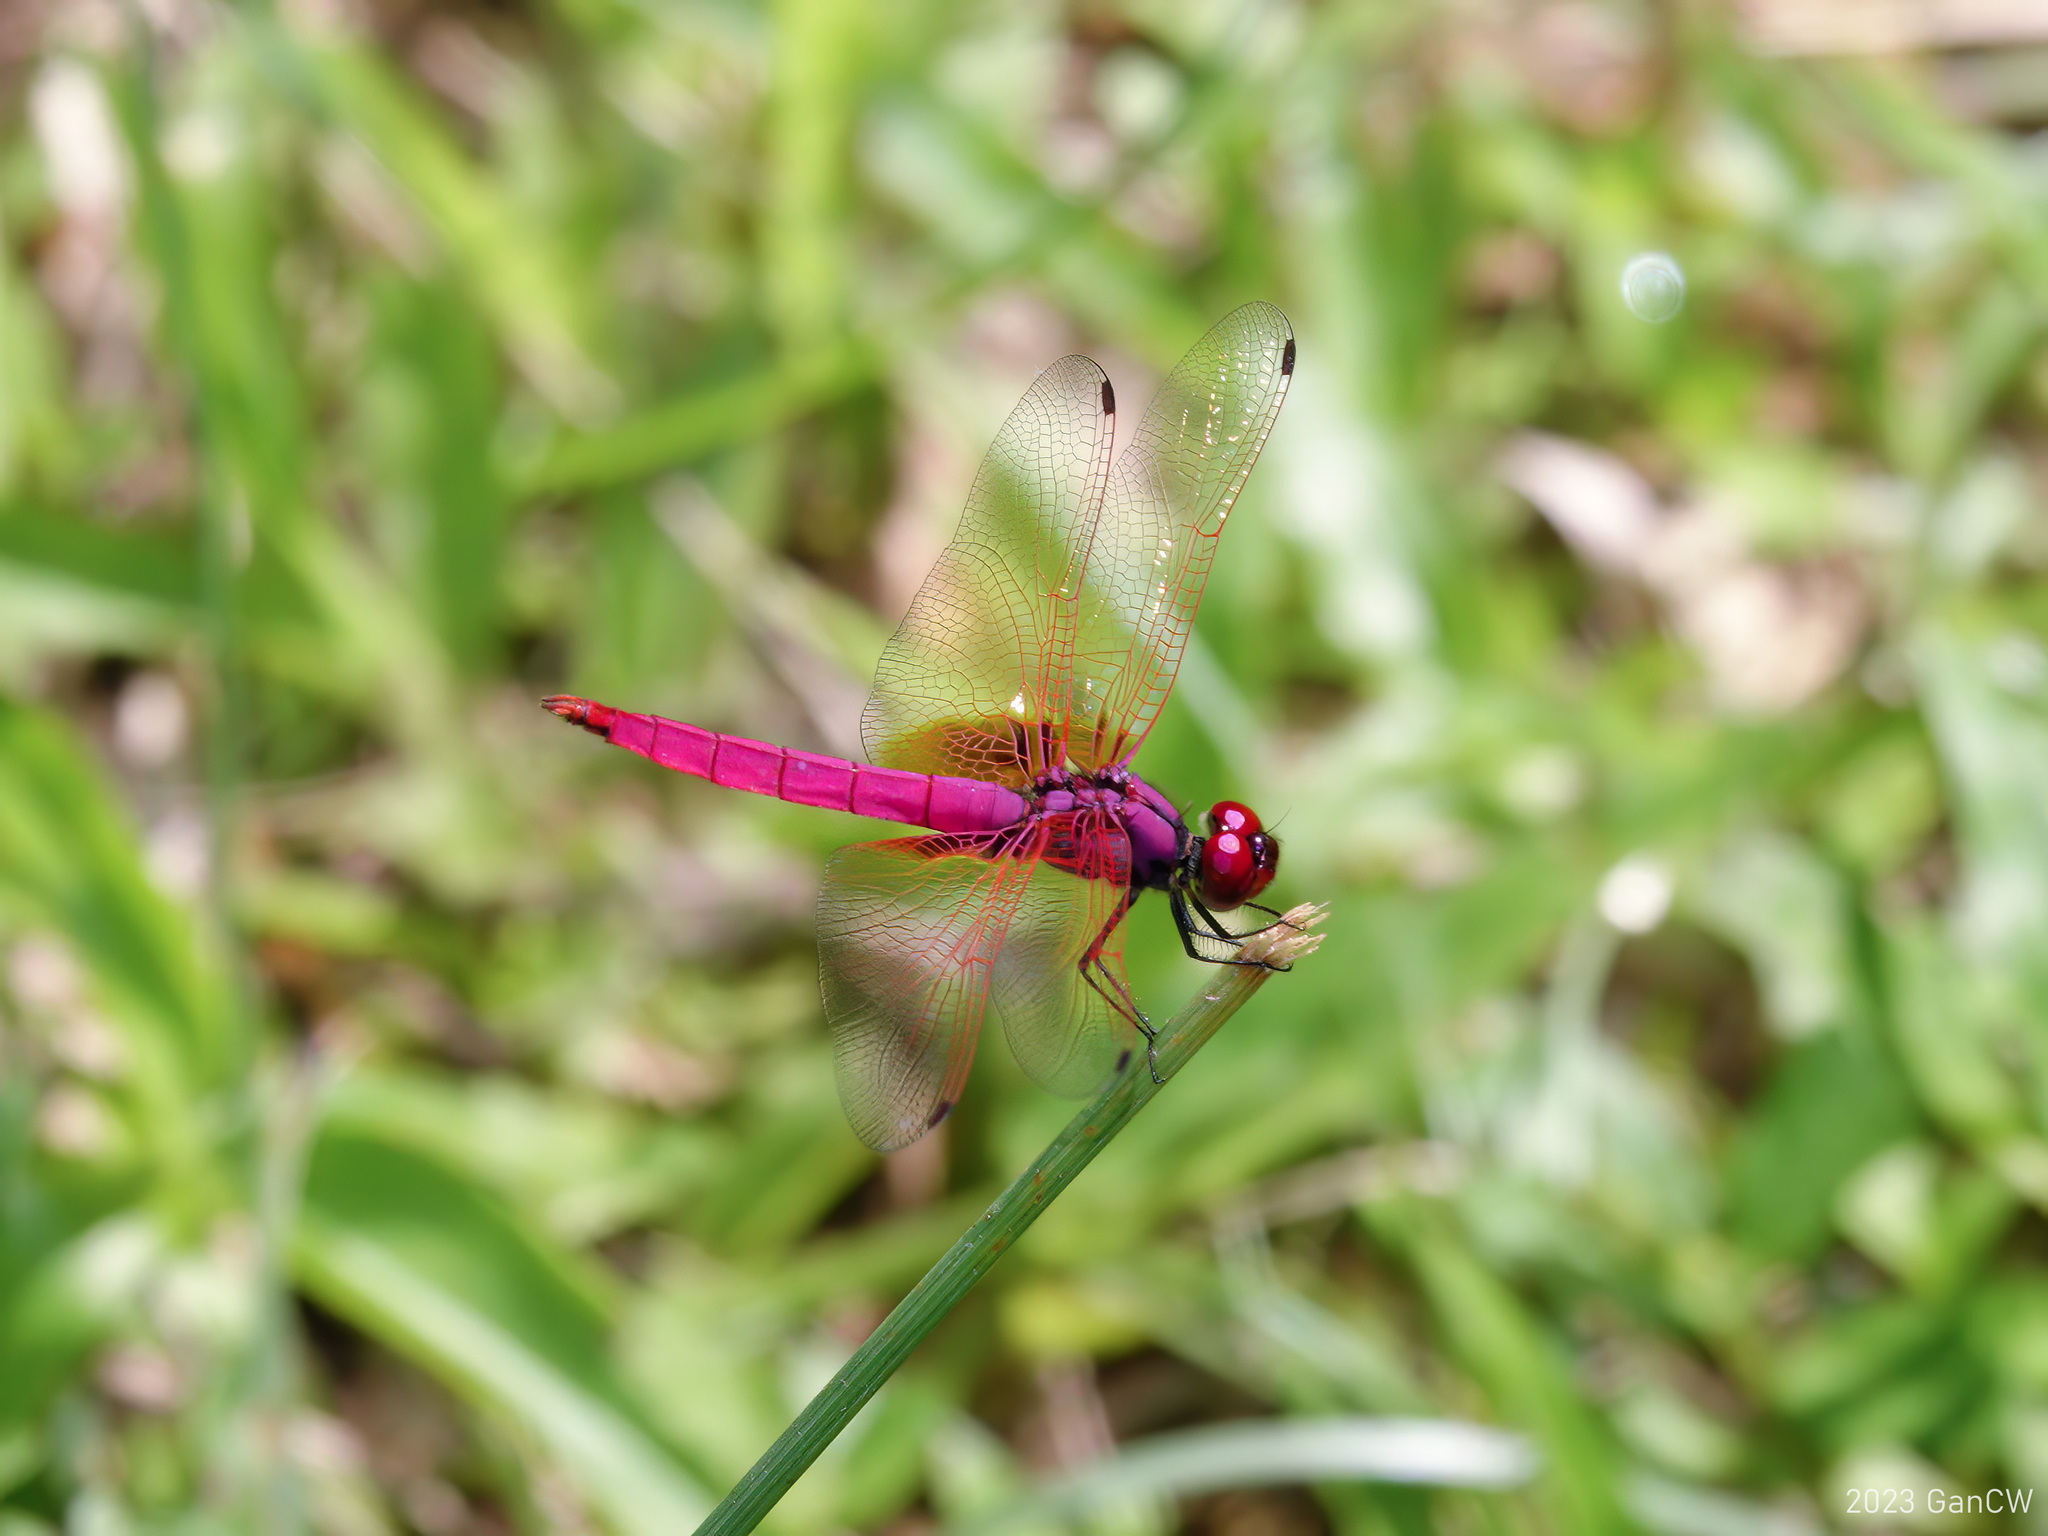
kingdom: Animalia
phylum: Arthropoda
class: Insecta
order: Odonata
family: Libellulidae
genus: Trithemis
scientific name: Trithemis aurora
